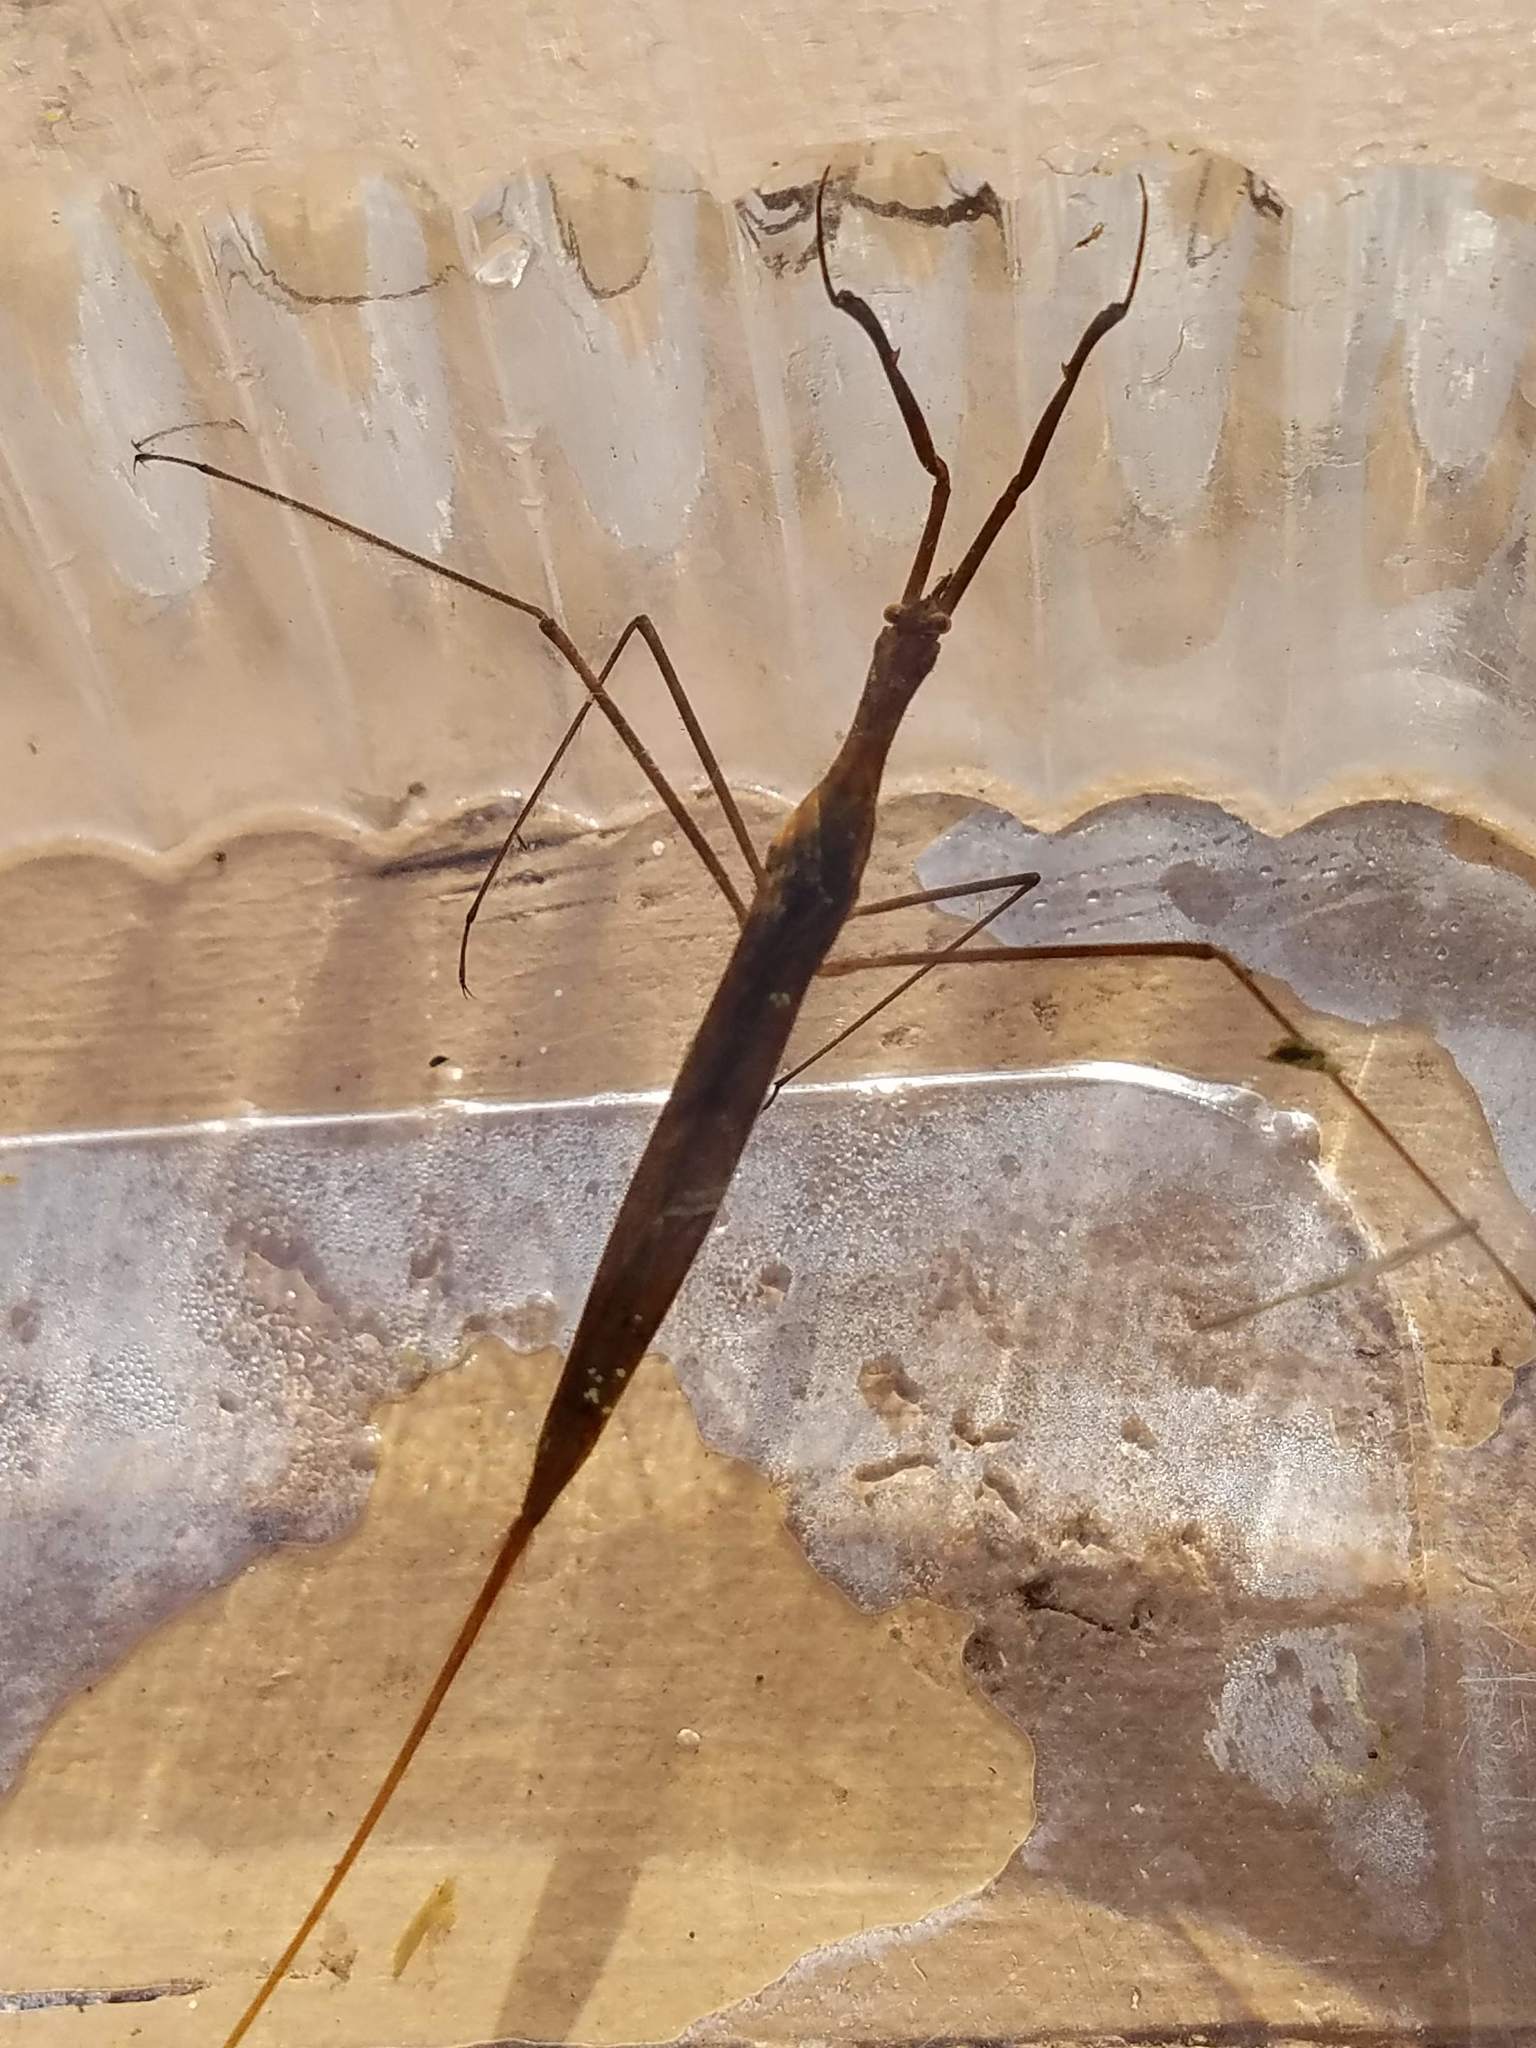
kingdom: Animalia
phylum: Arthropoda
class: Insecta
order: Hemiptera
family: Nepidae
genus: Ranatra
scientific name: Ranatra fusca
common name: Brown waterscorpion
